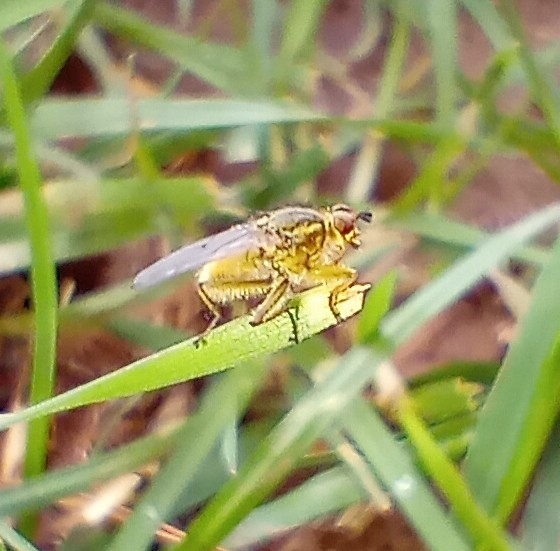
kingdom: Animalia
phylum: Arthropoda
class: Insecta
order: Diptera
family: Scathophagidae
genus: Scathophaga
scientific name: Scathophaga stercoraria
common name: Yellow dung fly
